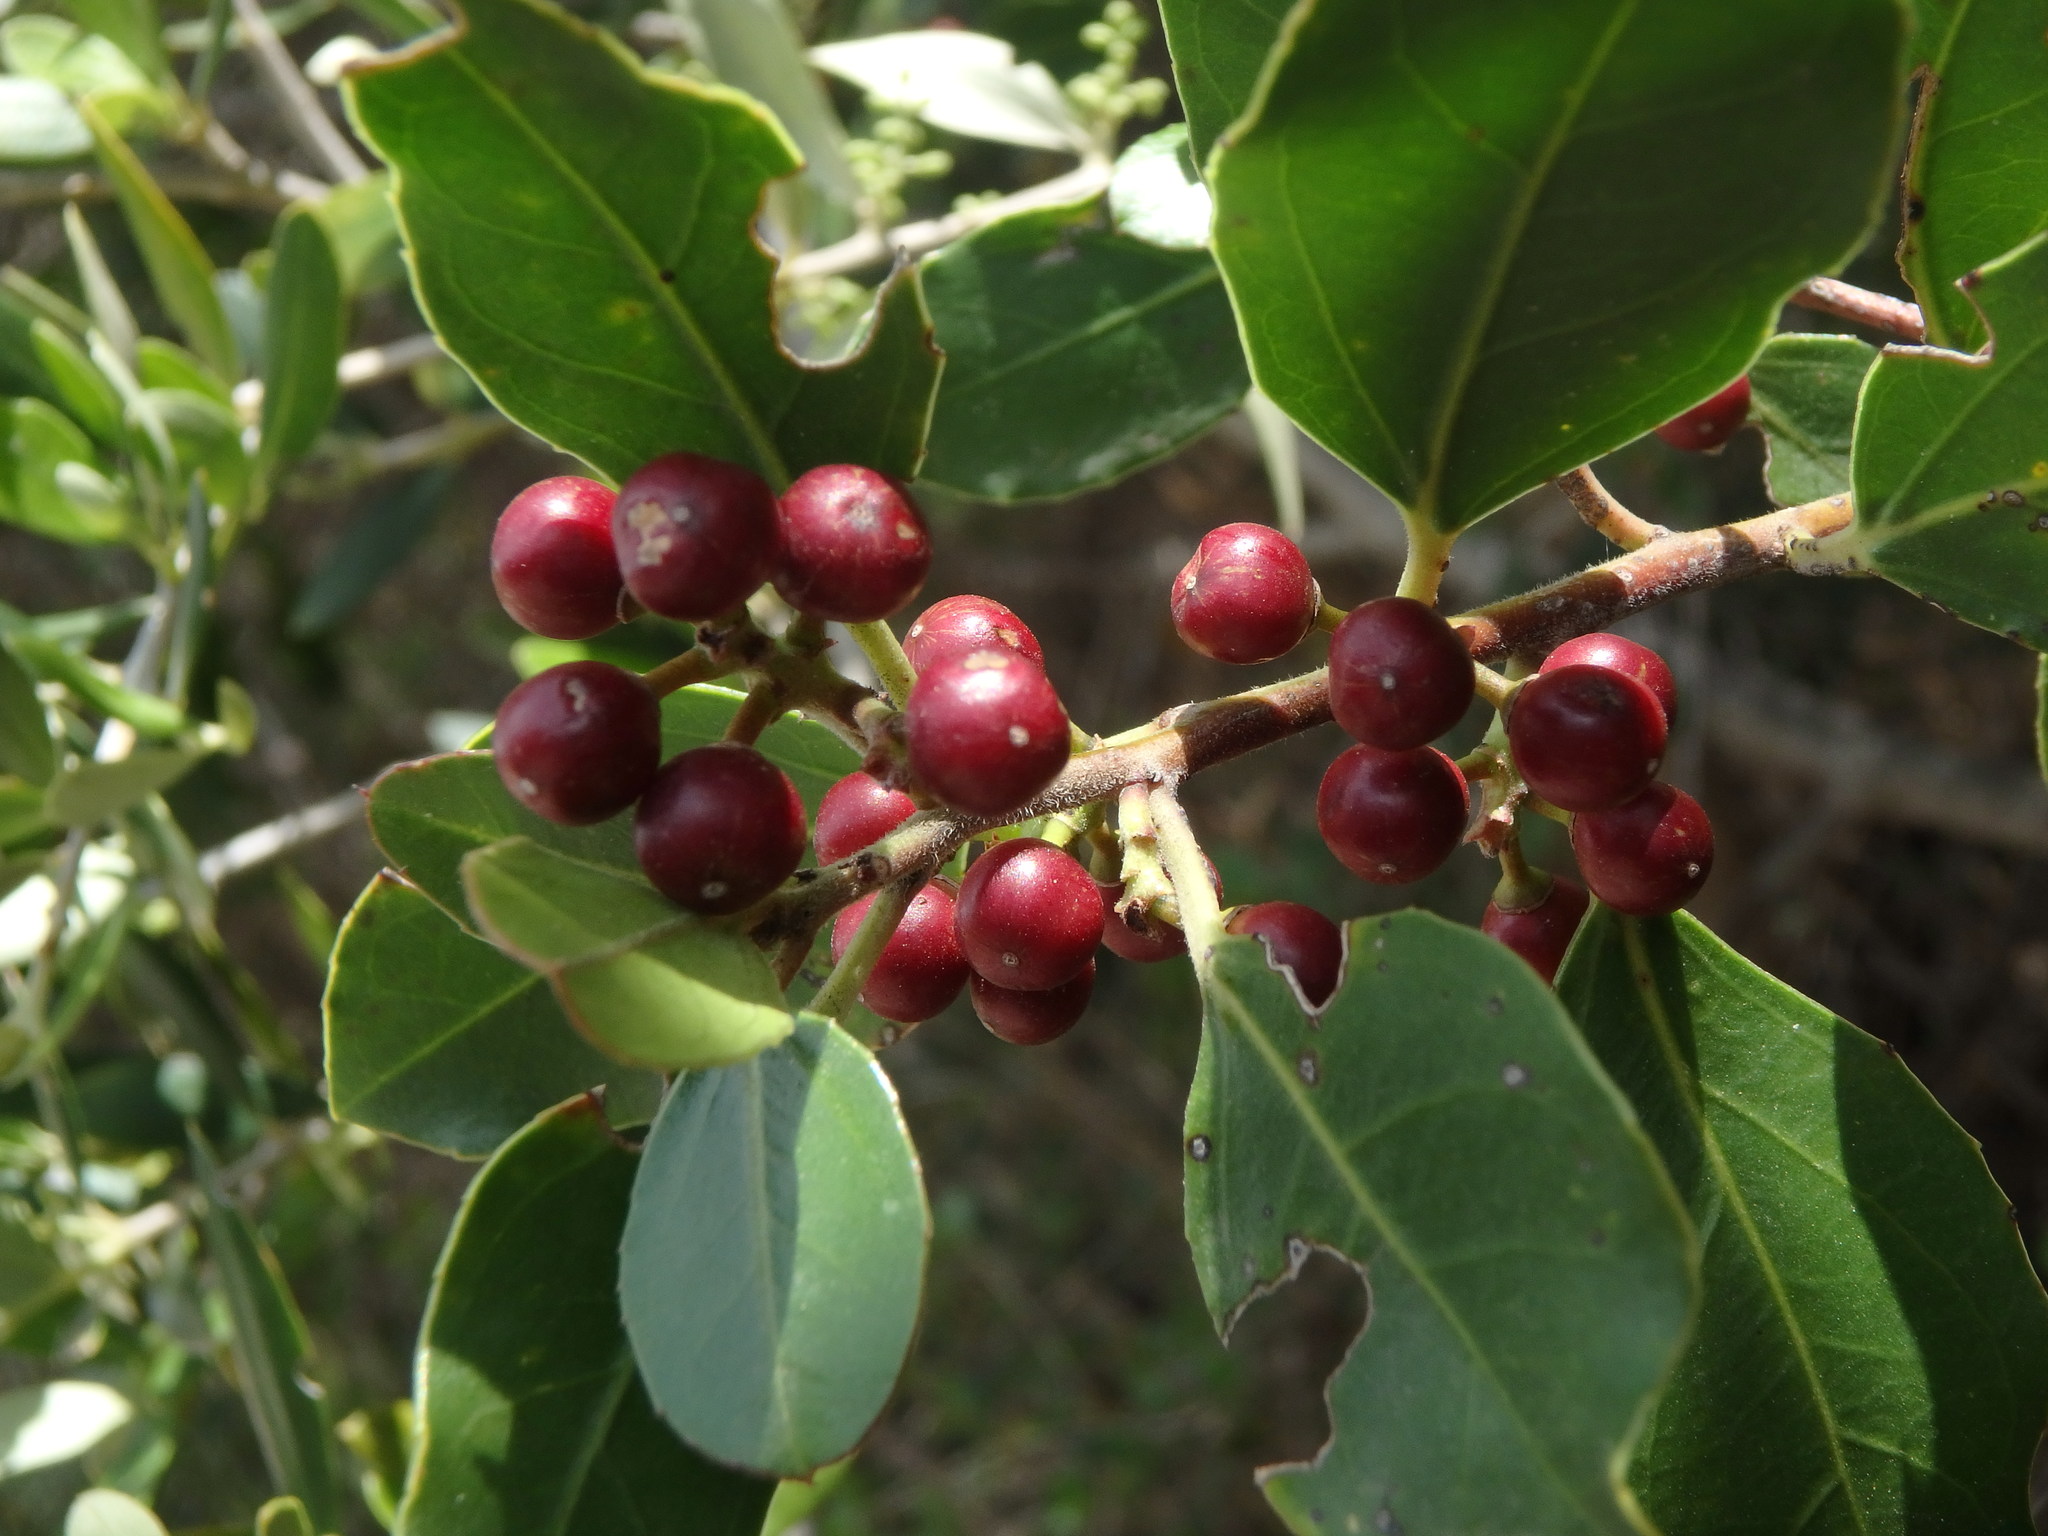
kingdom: Plantae
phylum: Tracheophyta
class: Magnoliopsida
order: Rosales
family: Rhamnaceae
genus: Rhamnus
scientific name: Rhamnus alaternus
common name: Mediterranean buckthorn
